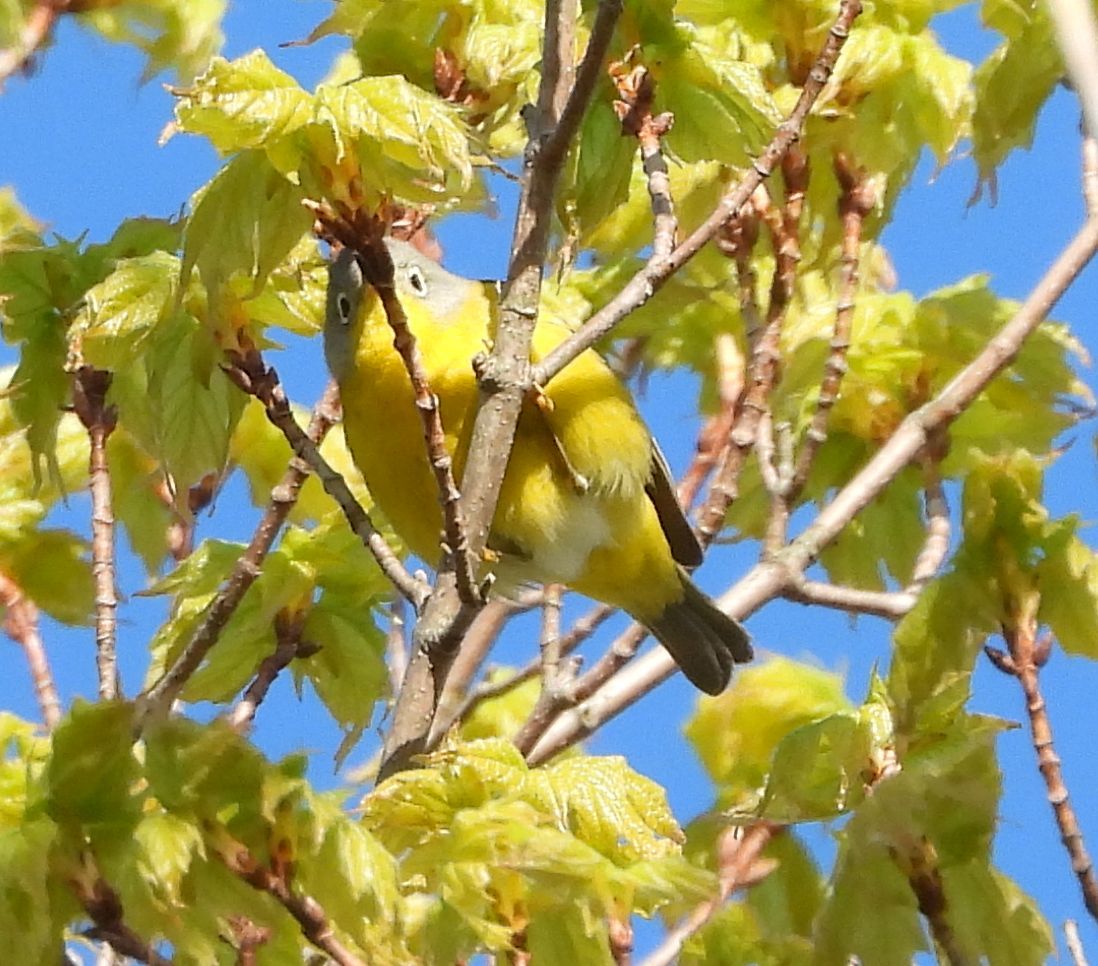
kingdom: Animalia
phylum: Chordata
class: Aves
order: Passeriformes
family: Parulidae
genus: Leiothlypis
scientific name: Leiothlypis ruficapilla
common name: Nashville warbler
